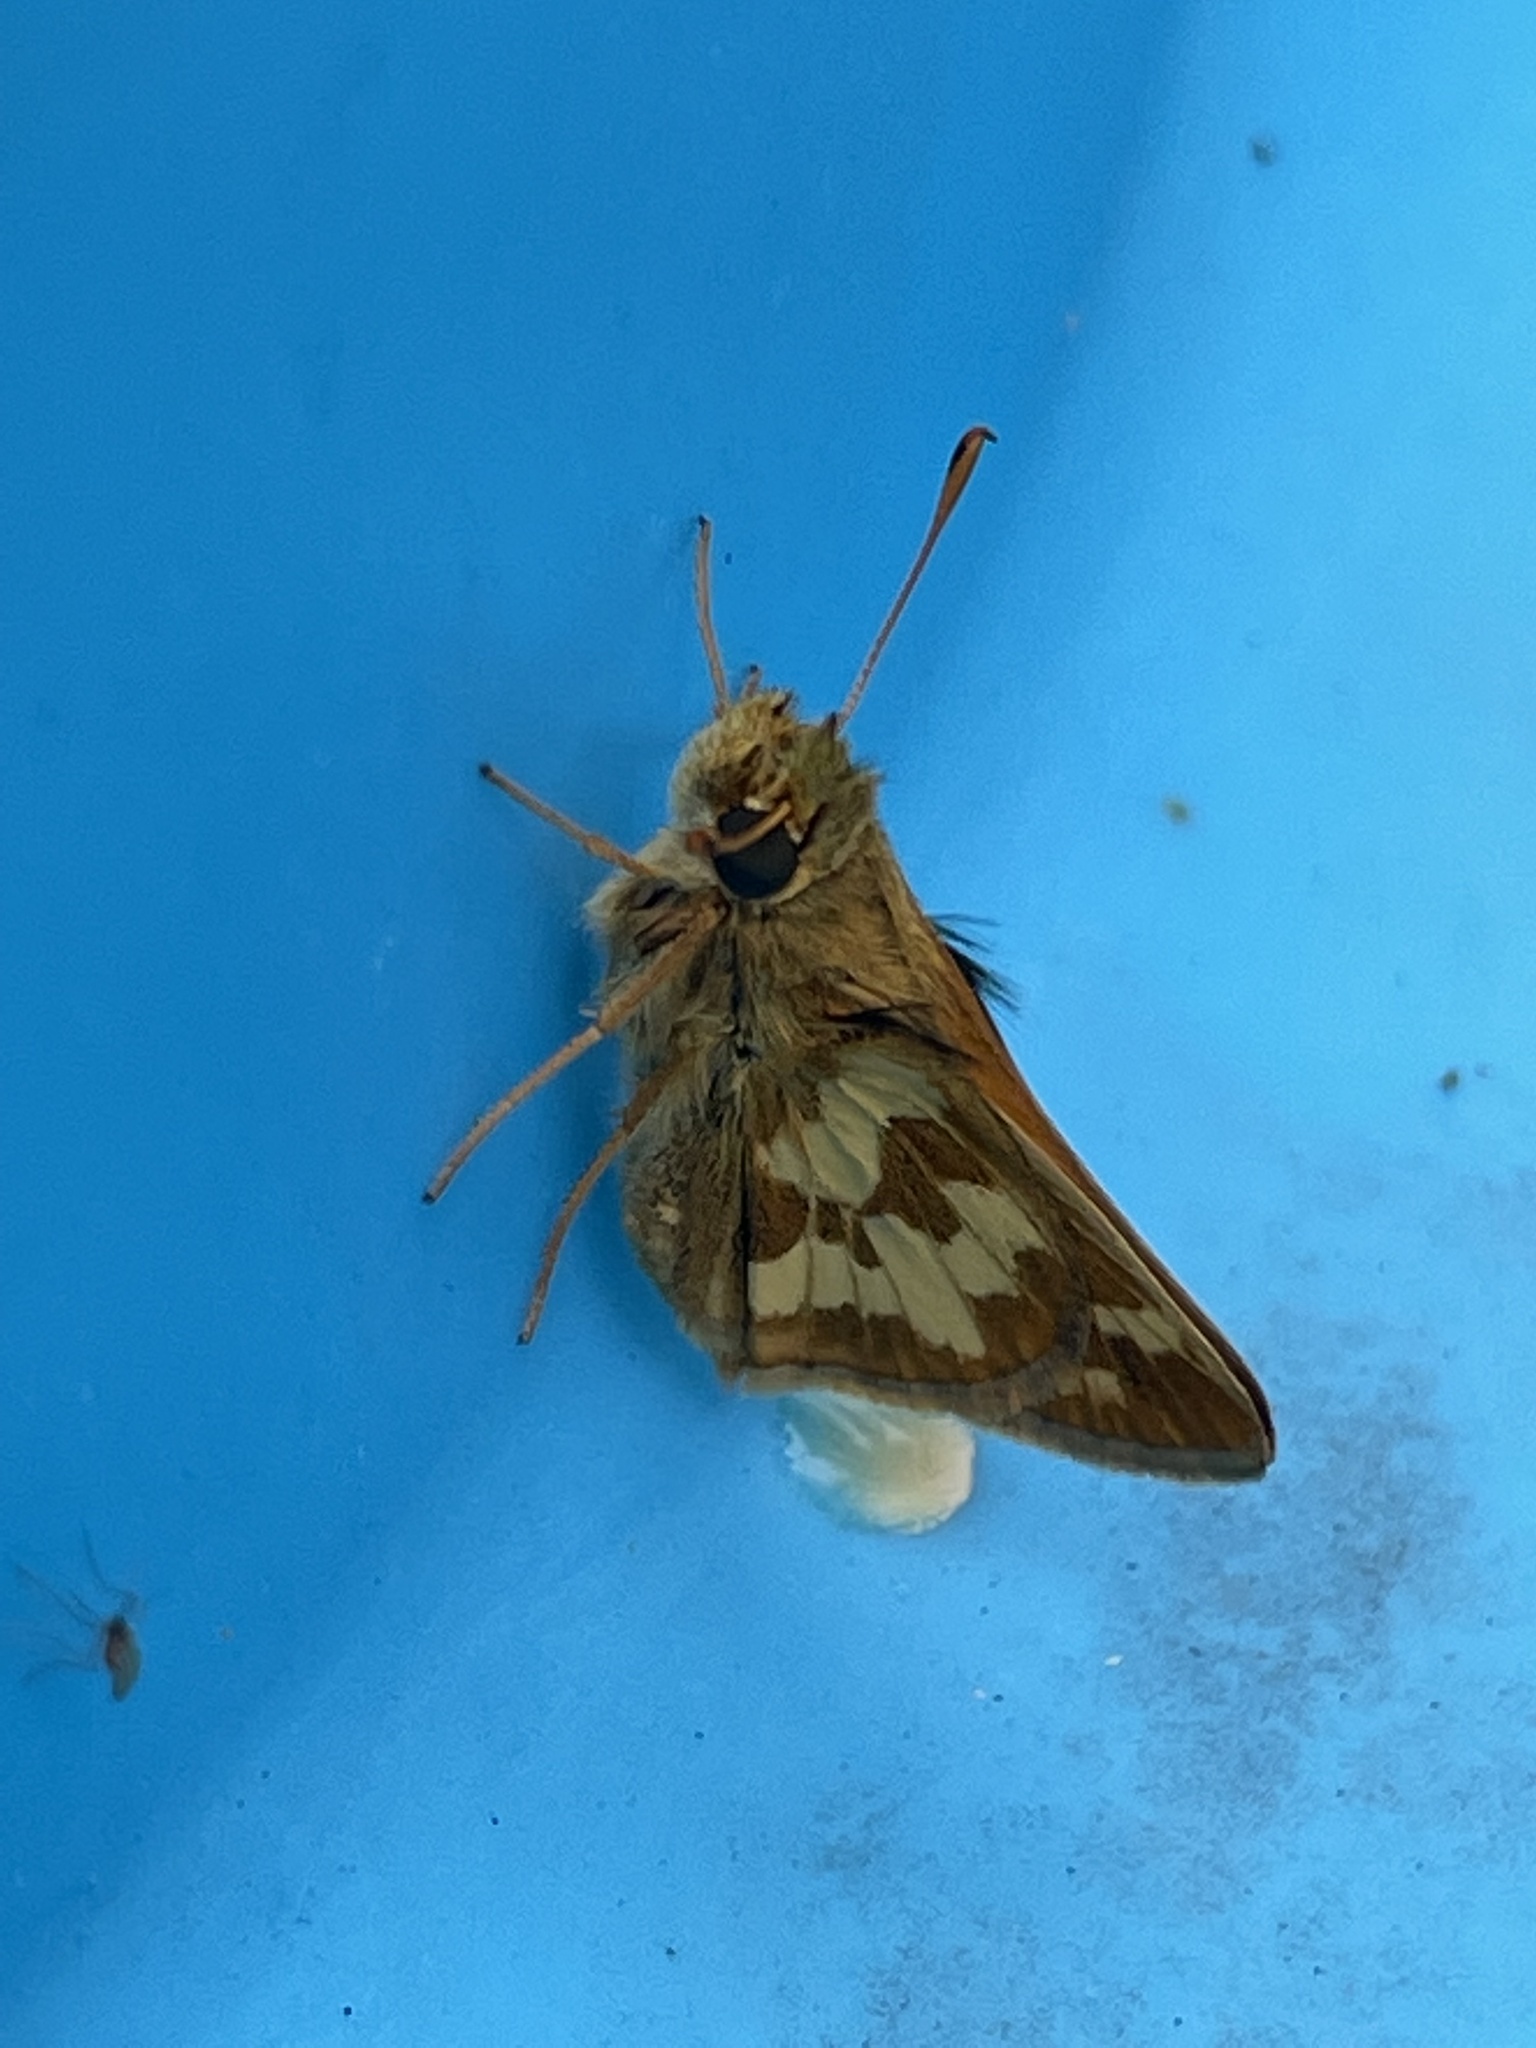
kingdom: Animalia
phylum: Arthropoda
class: Insecta
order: Lepidoptera
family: Hesperiidae
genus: Polites
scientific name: Polites coras
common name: Peck's skipper
